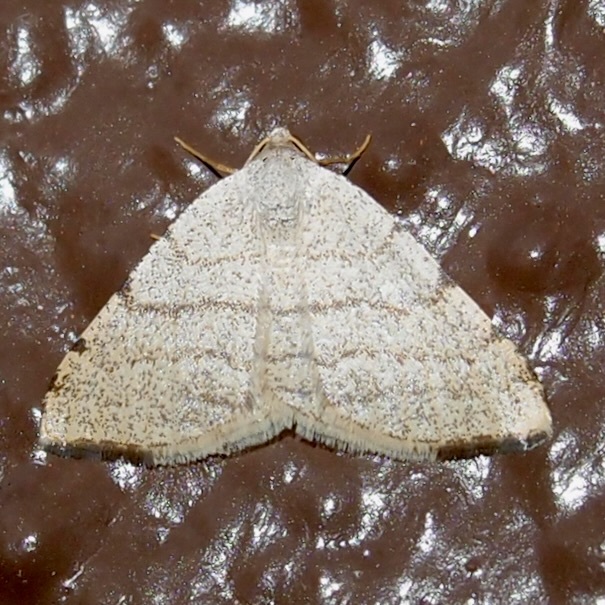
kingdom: Animalia
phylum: Arthropoda
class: Insecta
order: Lepidoptera
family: Geometridae
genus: Macaria
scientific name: Macaria octolineata
